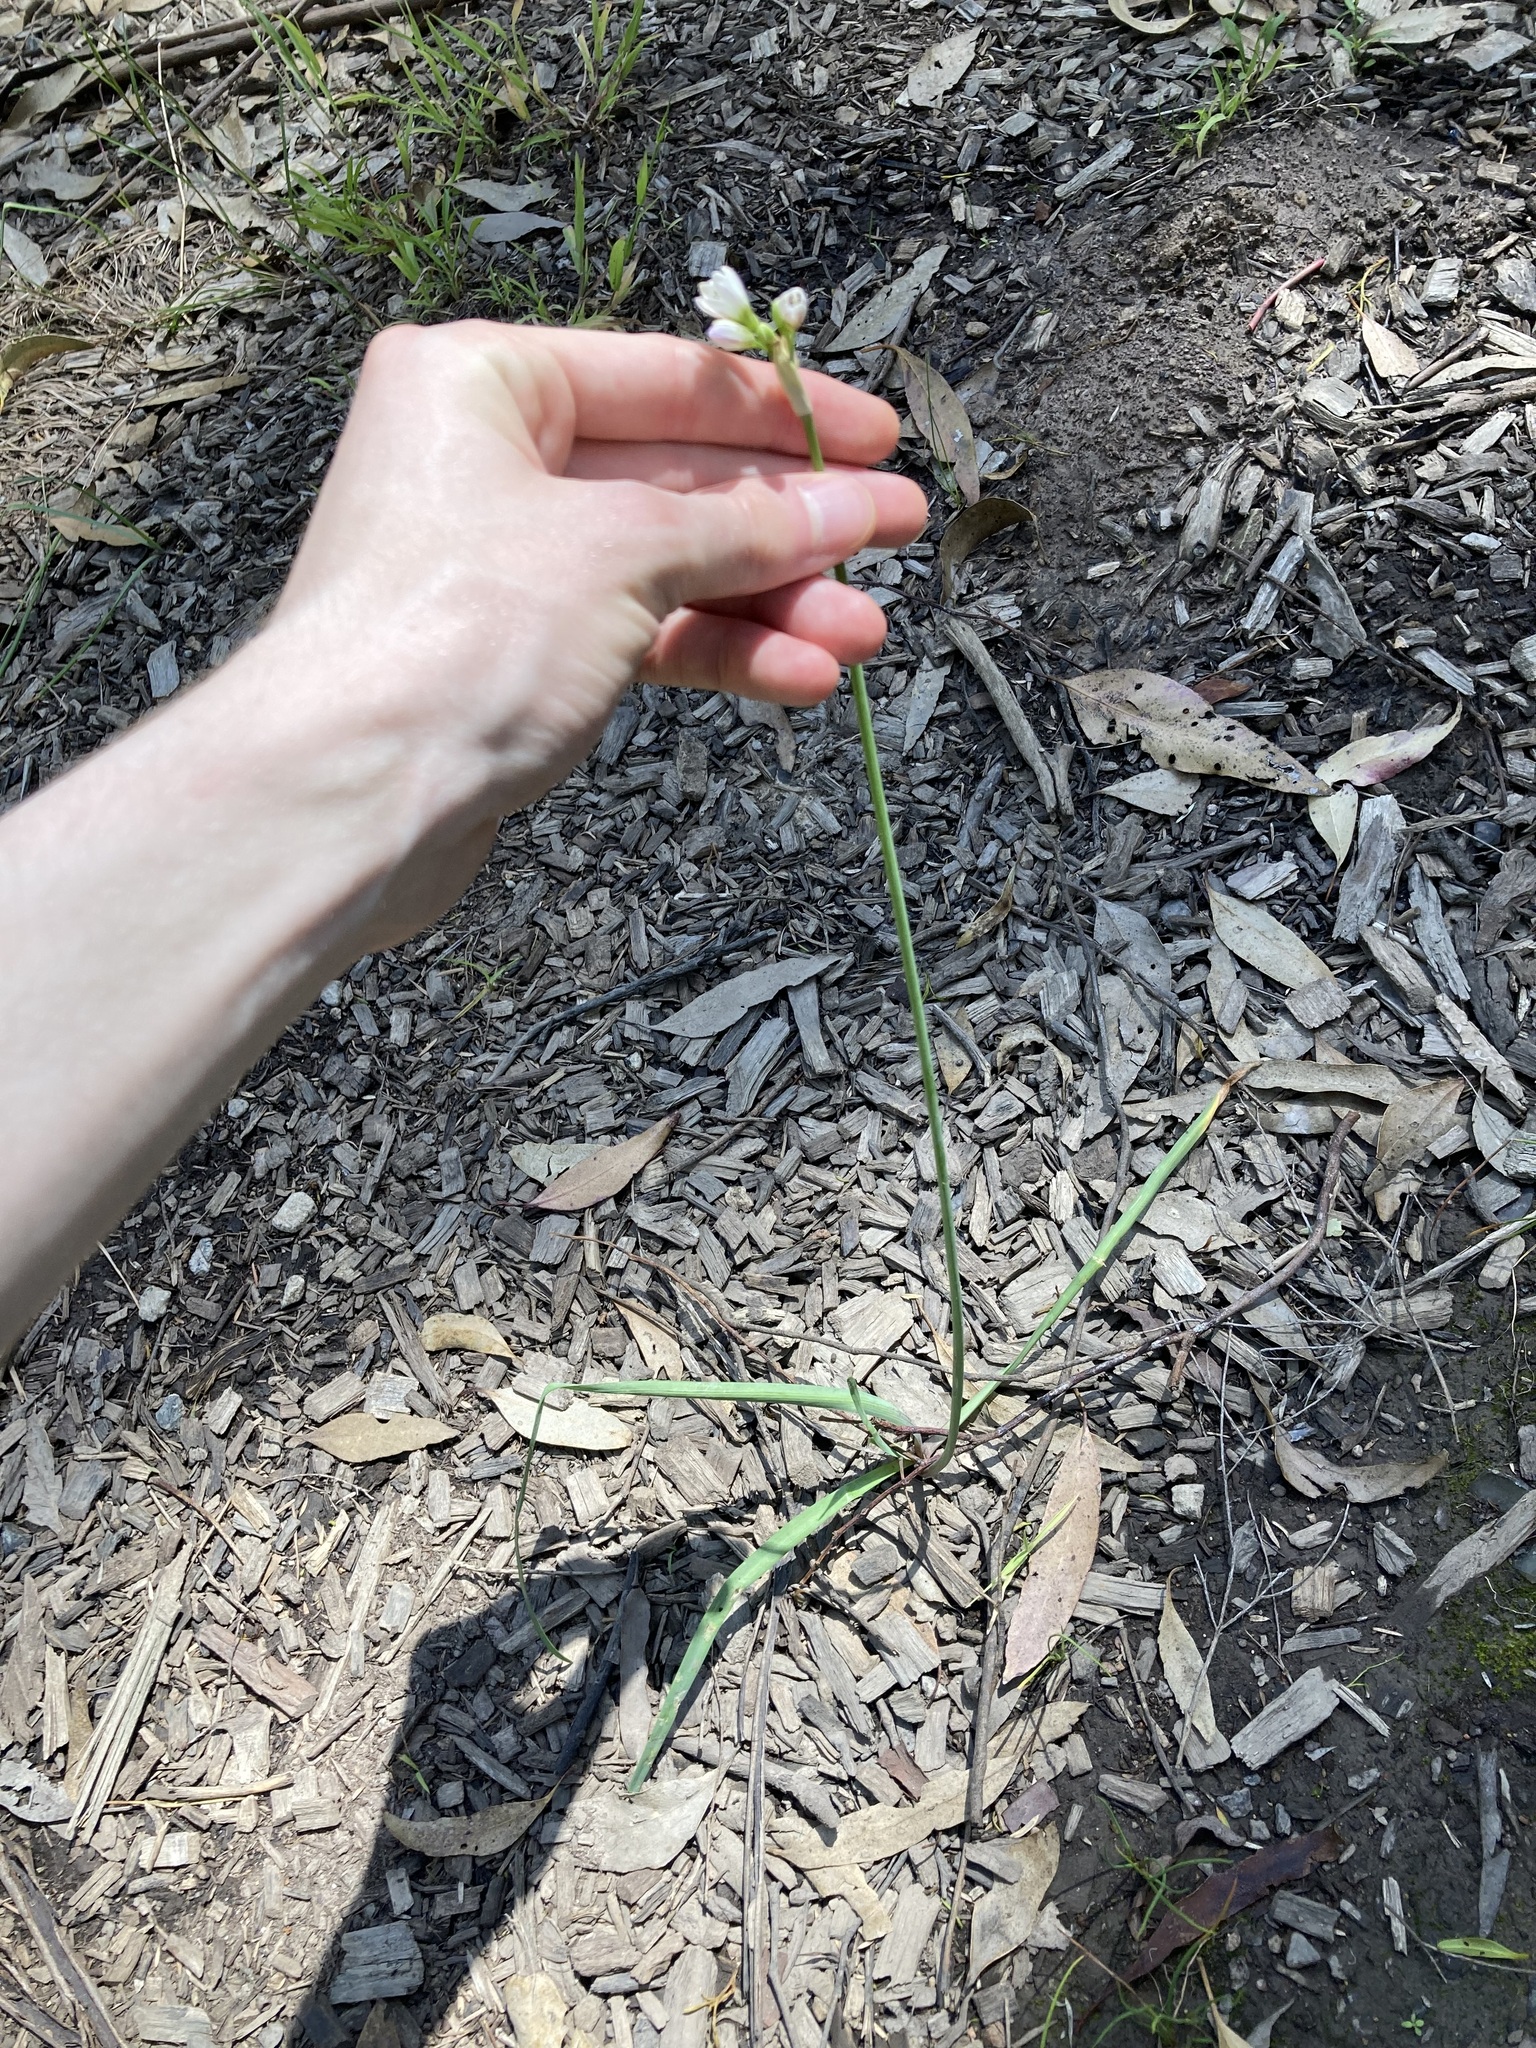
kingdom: Plantae
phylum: Tracheophyta
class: Liliopsida
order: Asparagales
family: Amaryllidaceae
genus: Nothoscordum
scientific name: Nothoscordum gracile
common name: Slender false garlic
